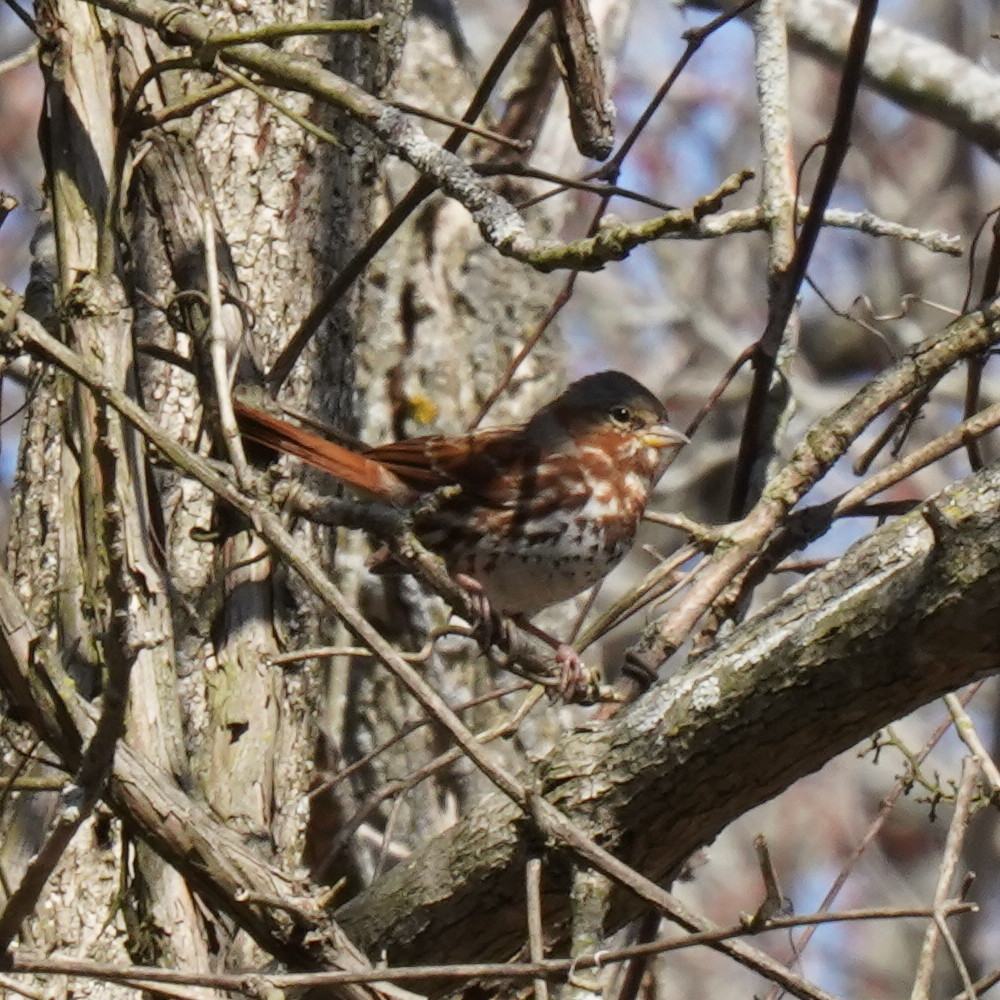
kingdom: Animalia
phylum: Chordata
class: Aves
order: Passeriformes
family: Passerellidae
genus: Passerella
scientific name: Passerella iliaca
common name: Fox sparrow
